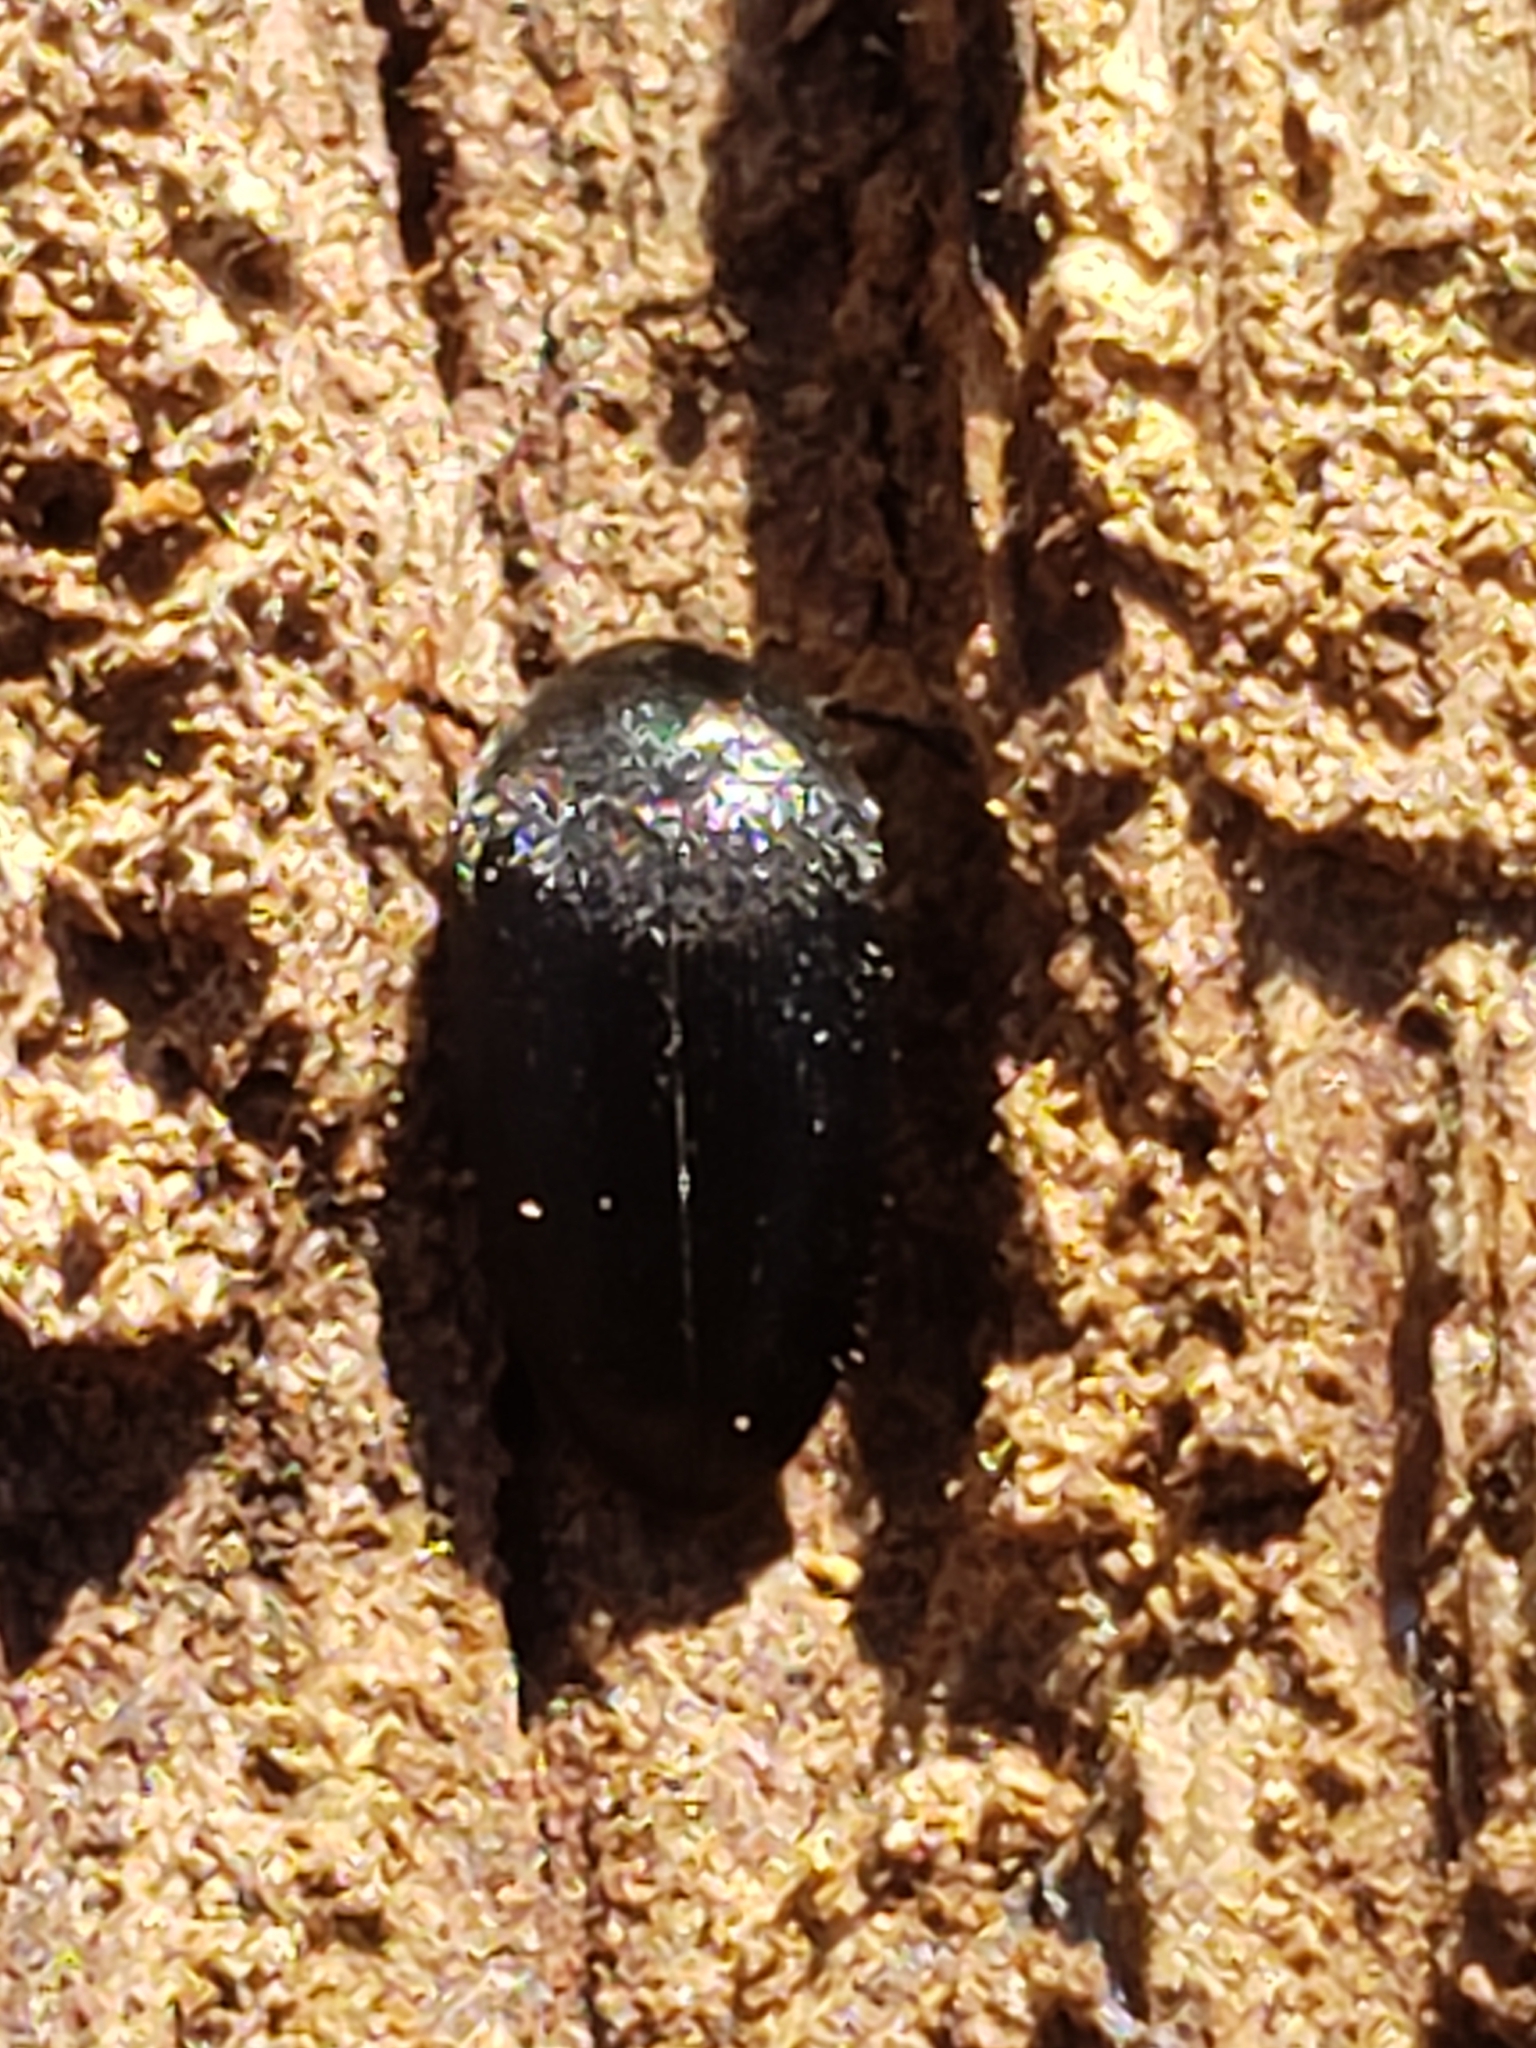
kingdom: Animalia
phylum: Arthropoda
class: Insecta
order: Coleoptera
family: Tetratomidae
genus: Eustrophopsis
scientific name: Eustrophopsis bicolor
